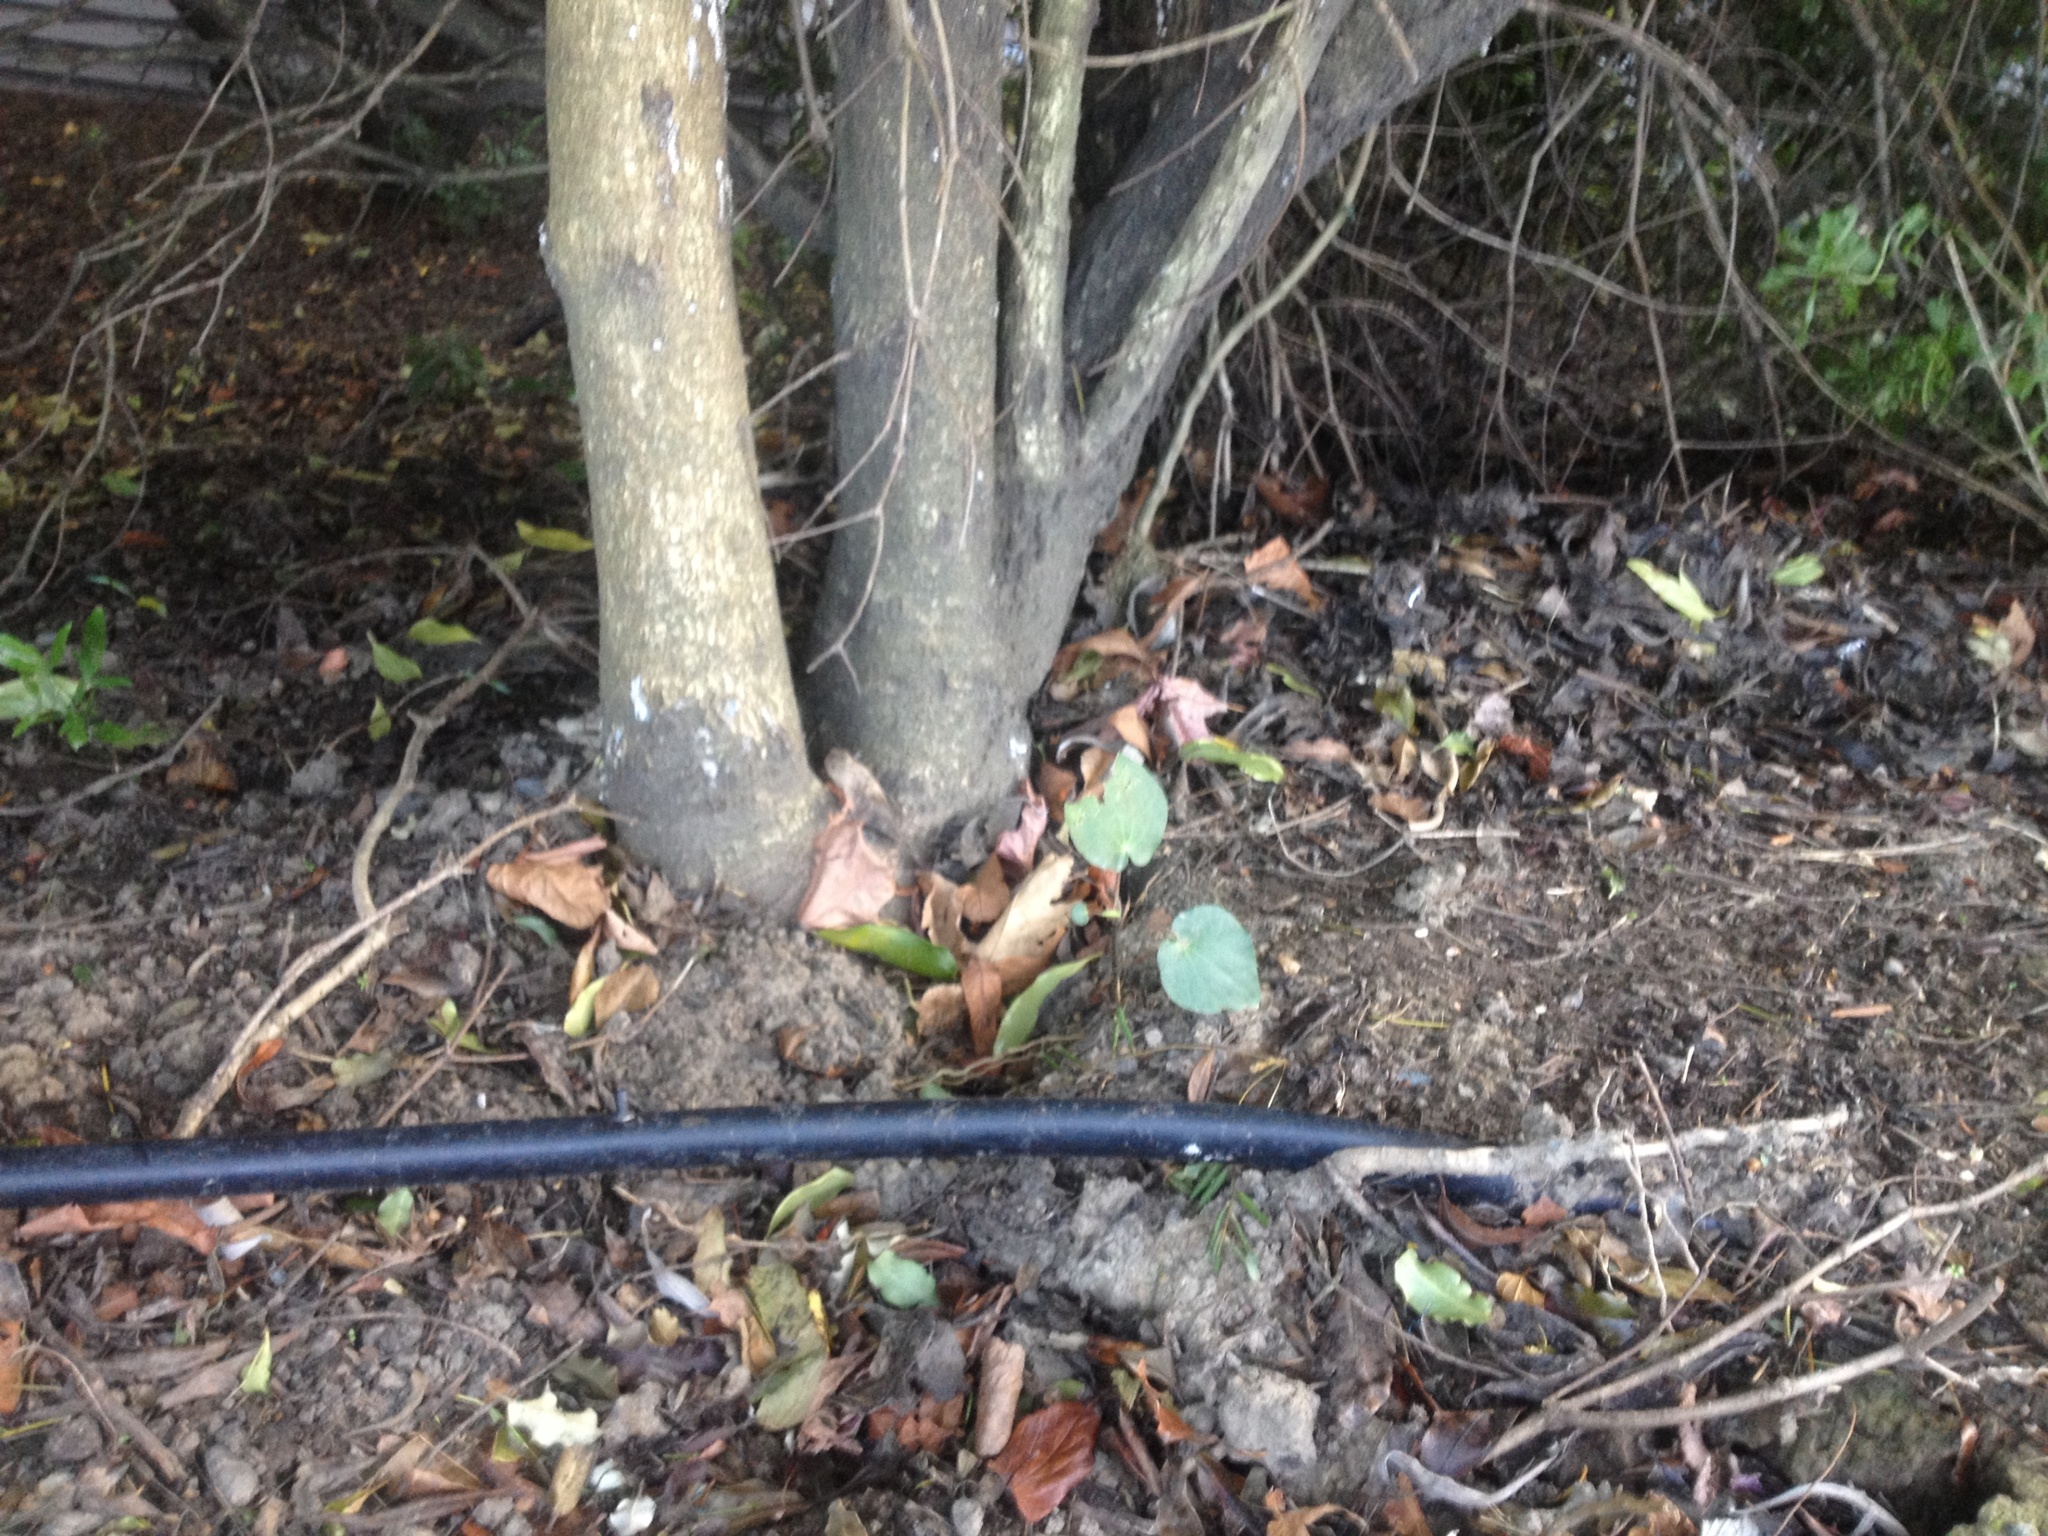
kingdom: Plantae
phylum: Tracheophyta
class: Magnoliopsida
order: Piperales
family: Piperaceae
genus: Macropiper
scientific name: Macropiper excelsum
